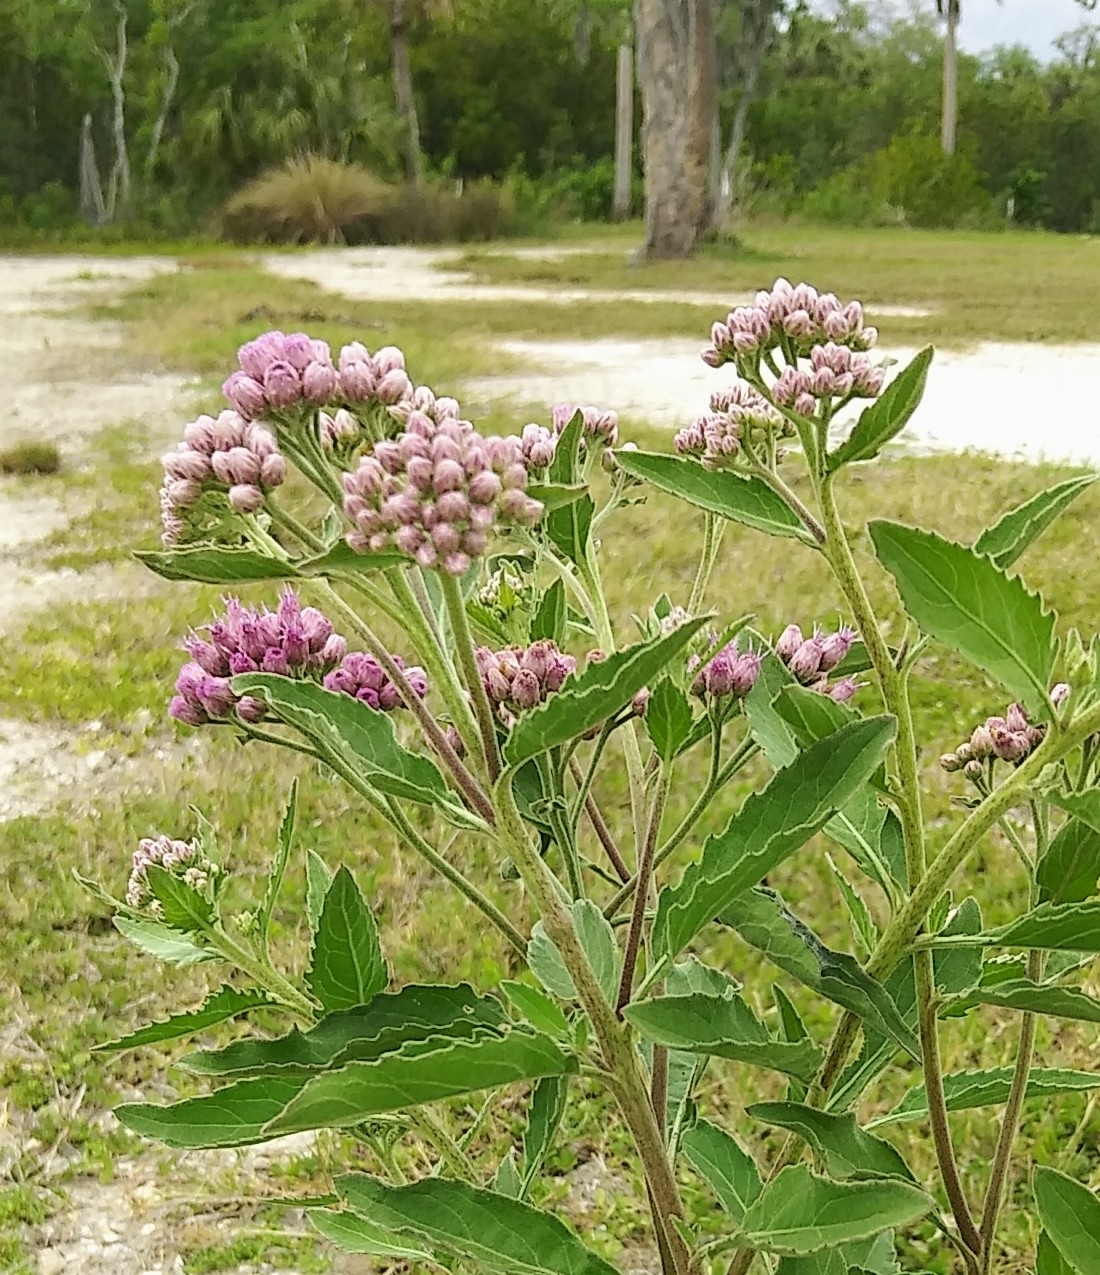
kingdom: Plantae
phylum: Tracheophyta
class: Magnoliopsida
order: Asterales
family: Asteraceae
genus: Pluchea
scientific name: Pluchea odorata
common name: Saltmarsh fleabane
